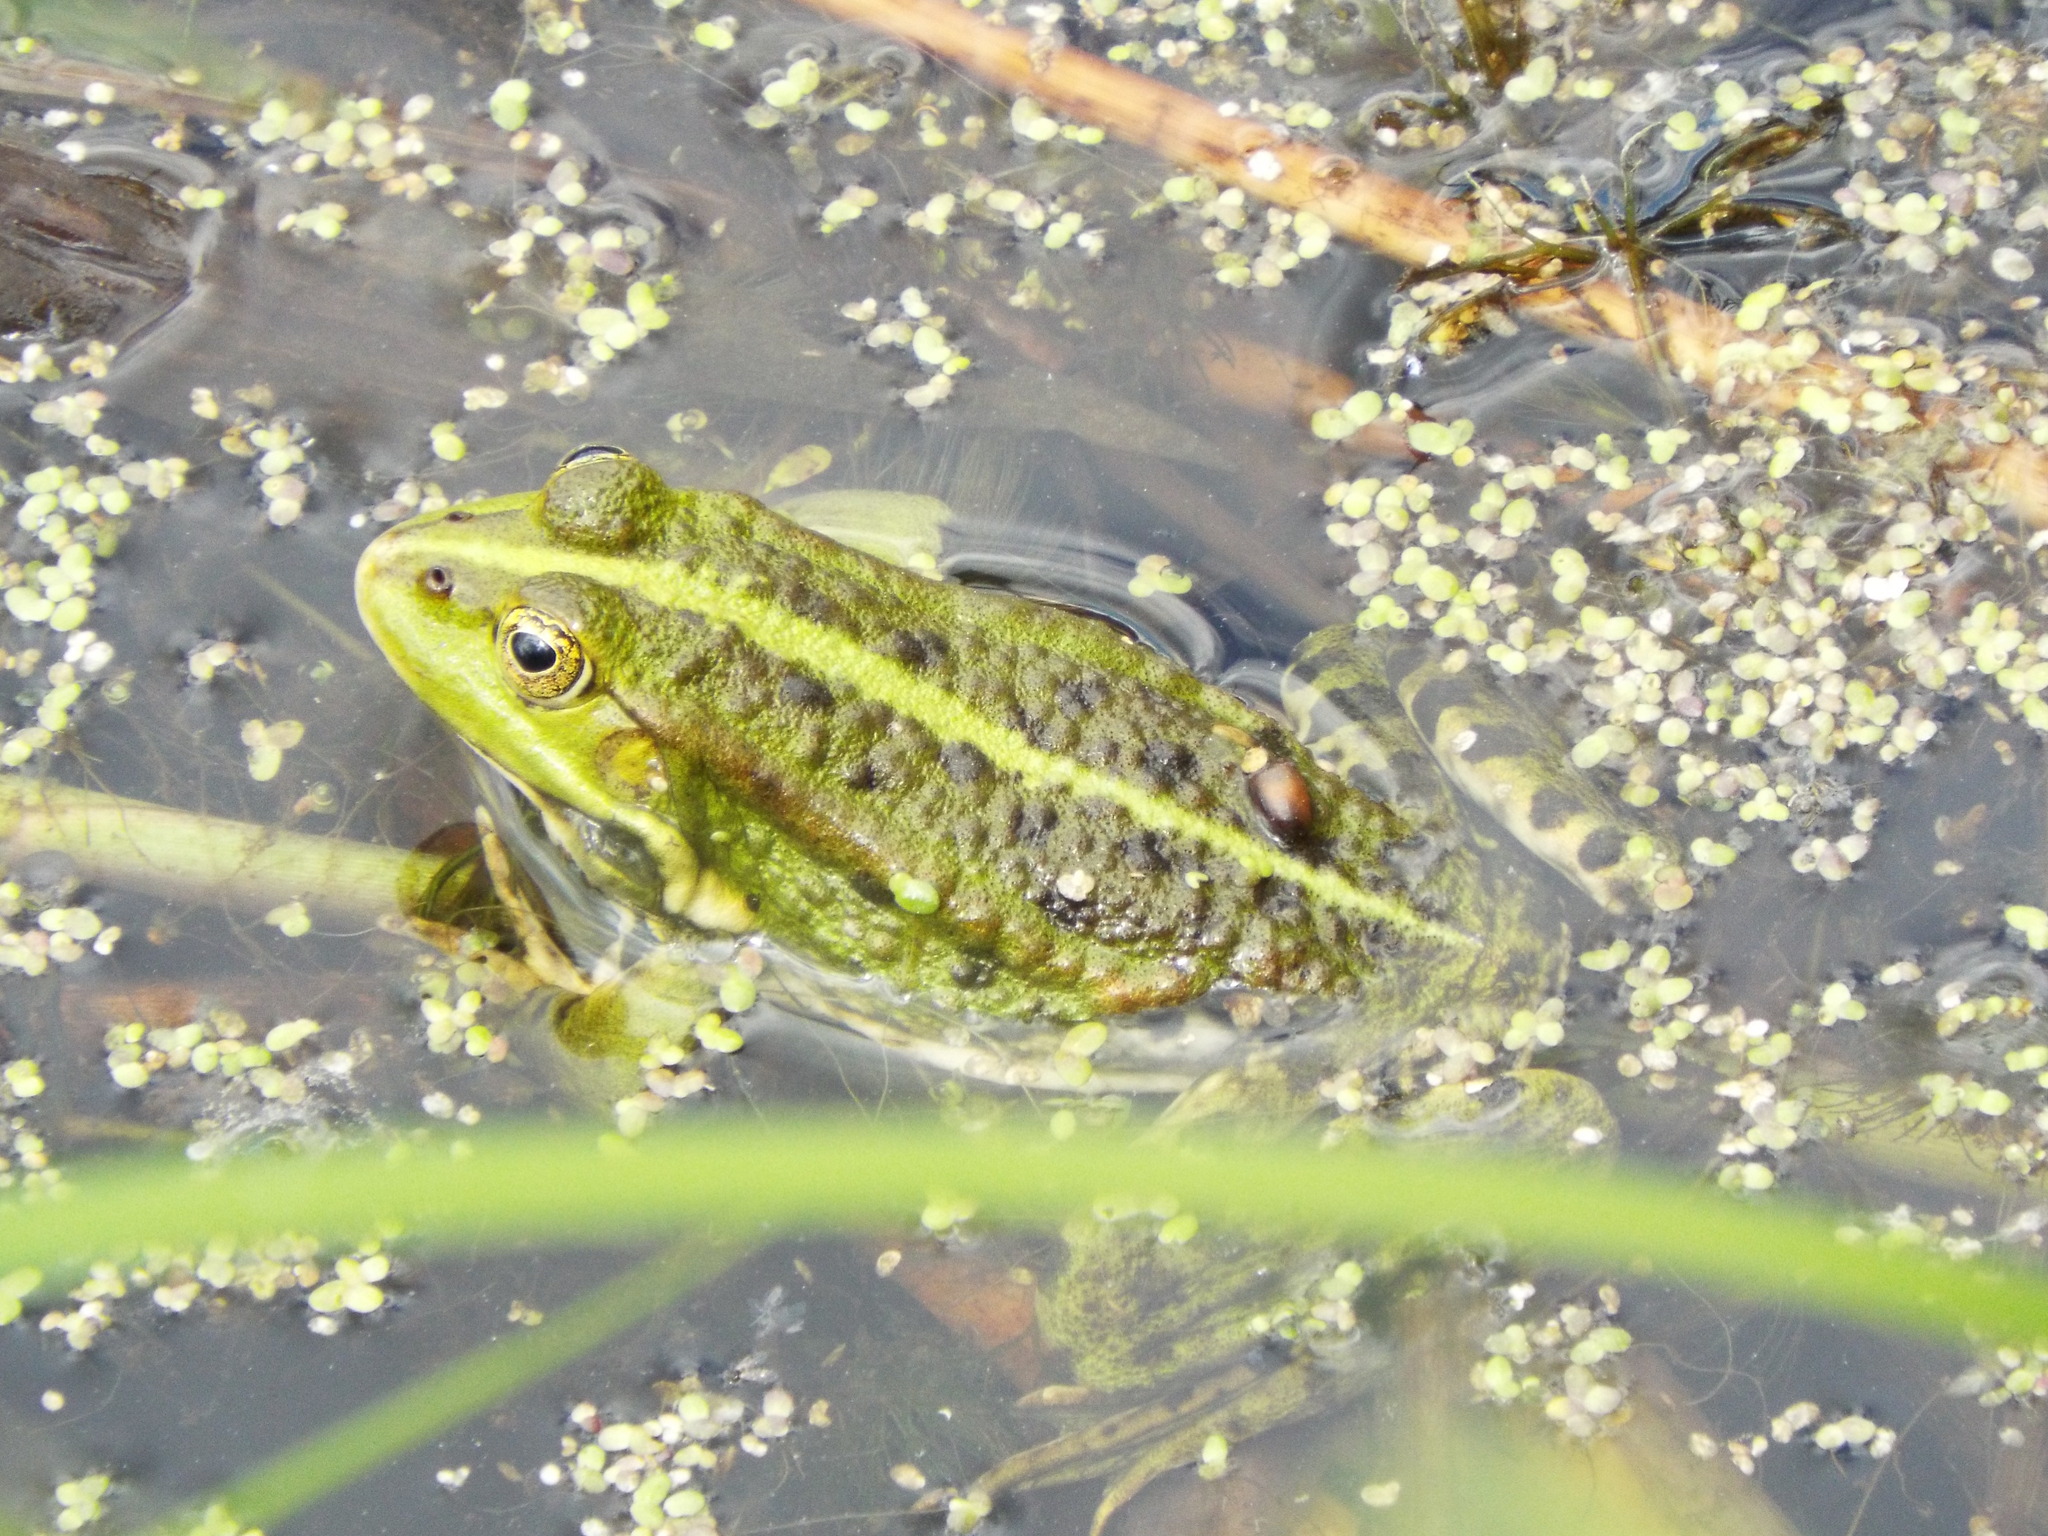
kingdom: Animalia
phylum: Chordata
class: Amphibia
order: Anura
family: Ranidae
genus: Pelophylax
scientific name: Pelophylax ridibundus
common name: Marsh frog
